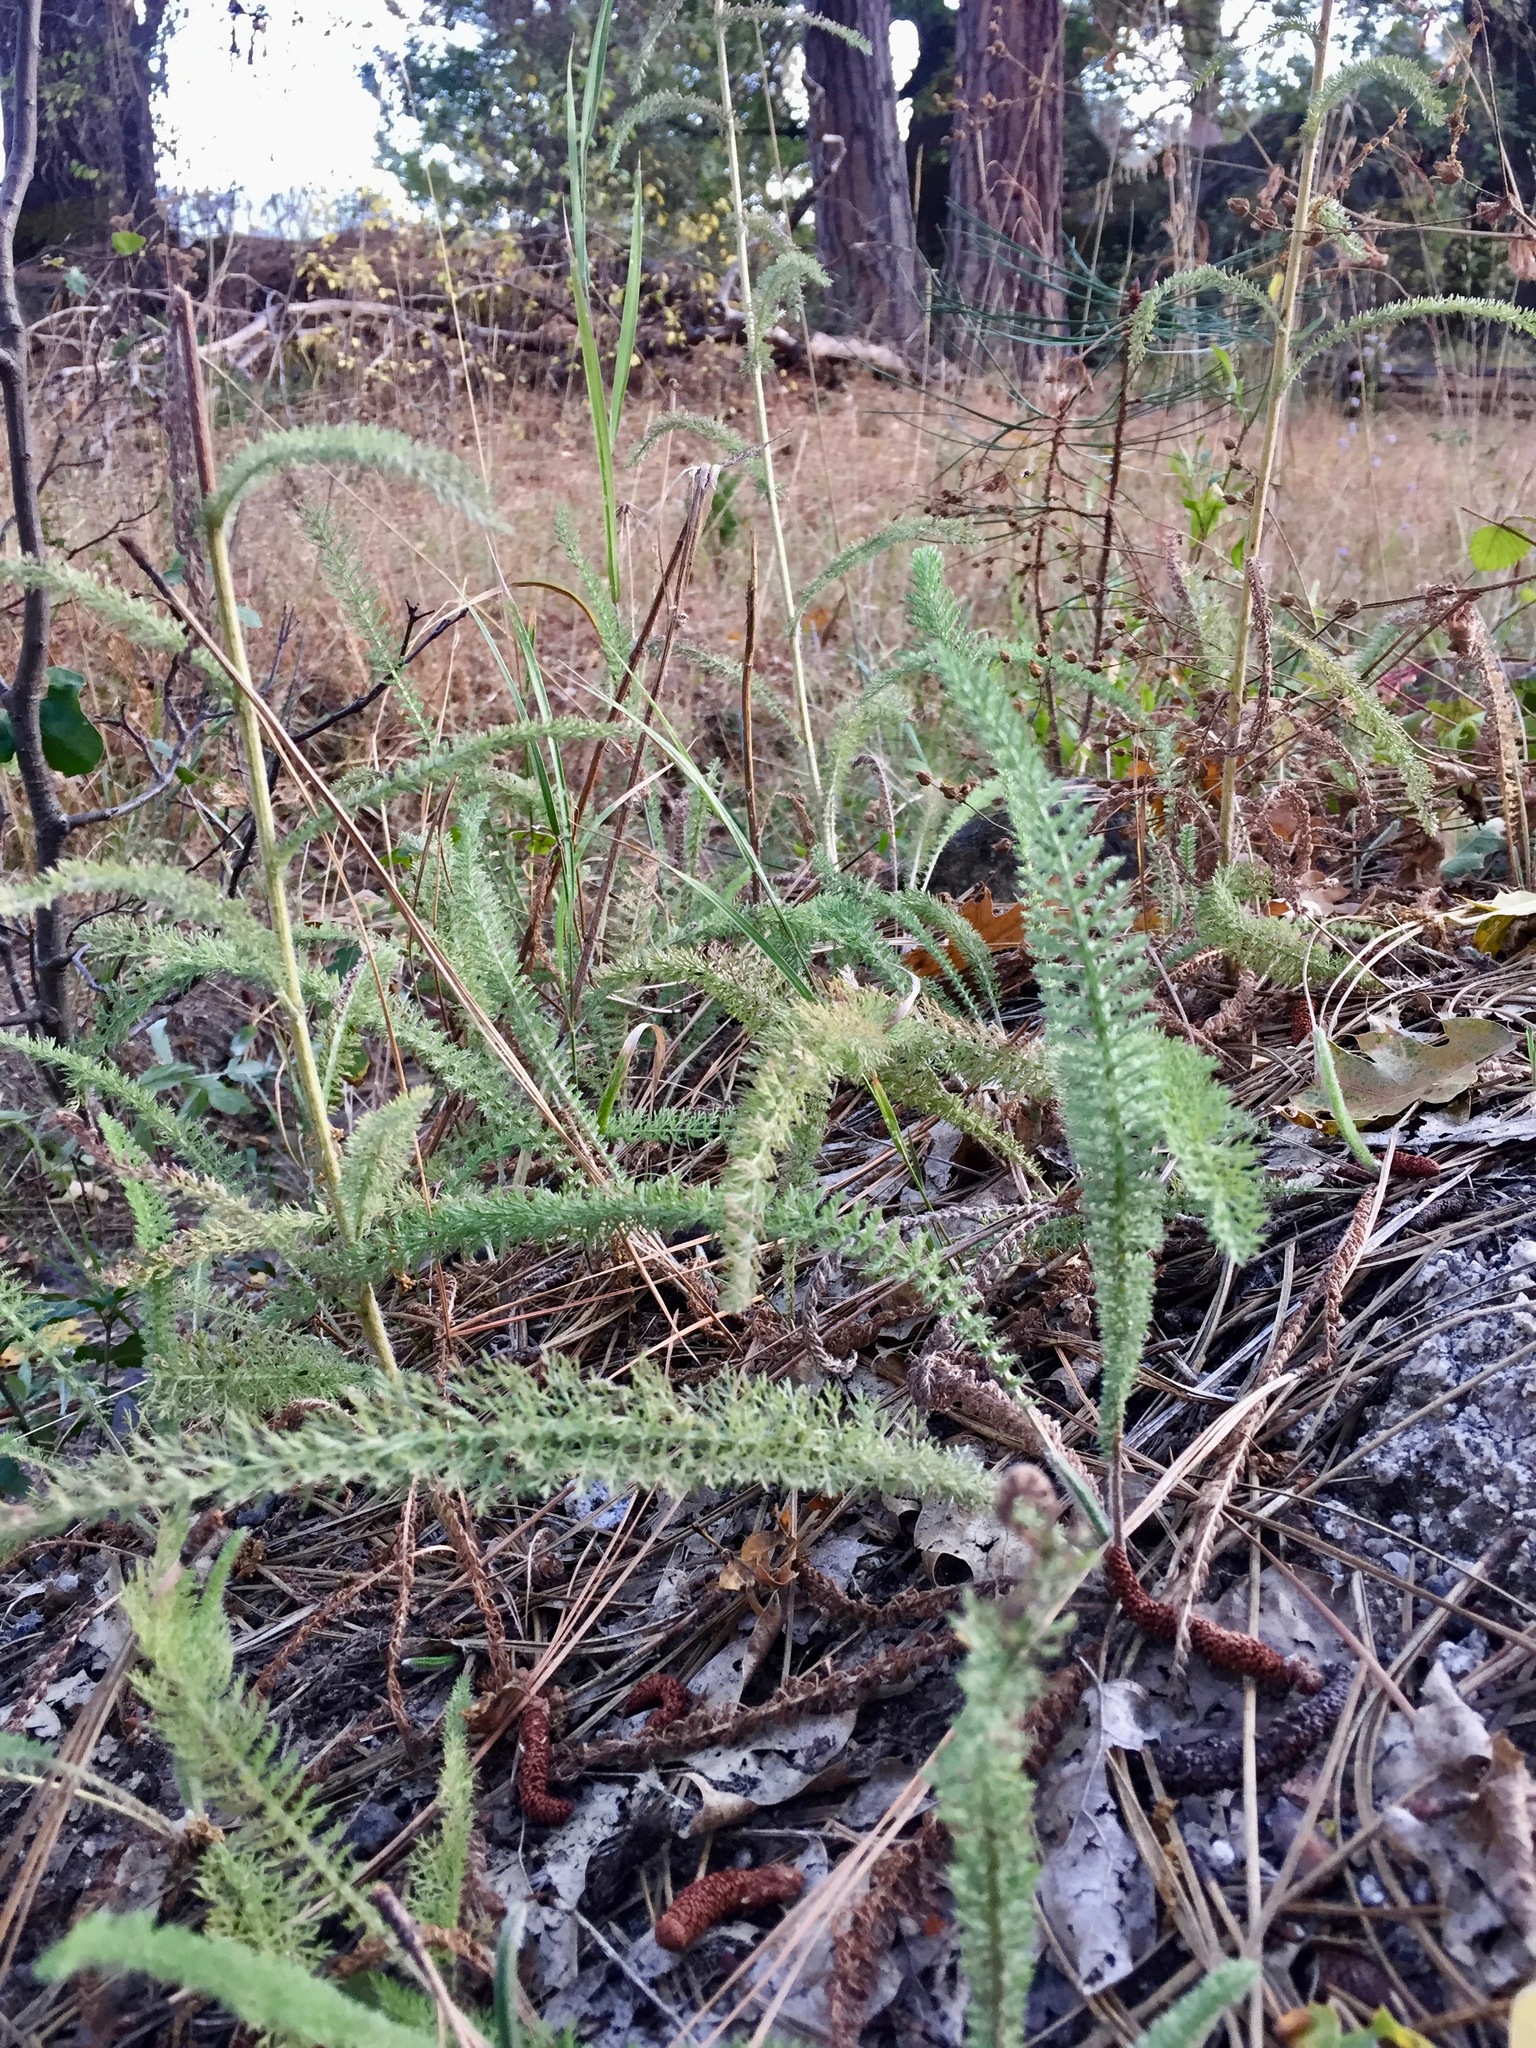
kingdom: Plantae
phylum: Tracheophyta
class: Magnoliopsida
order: Asterales
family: Asteraceae
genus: Achillea
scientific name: Achillea millefolium
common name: Yarrow
